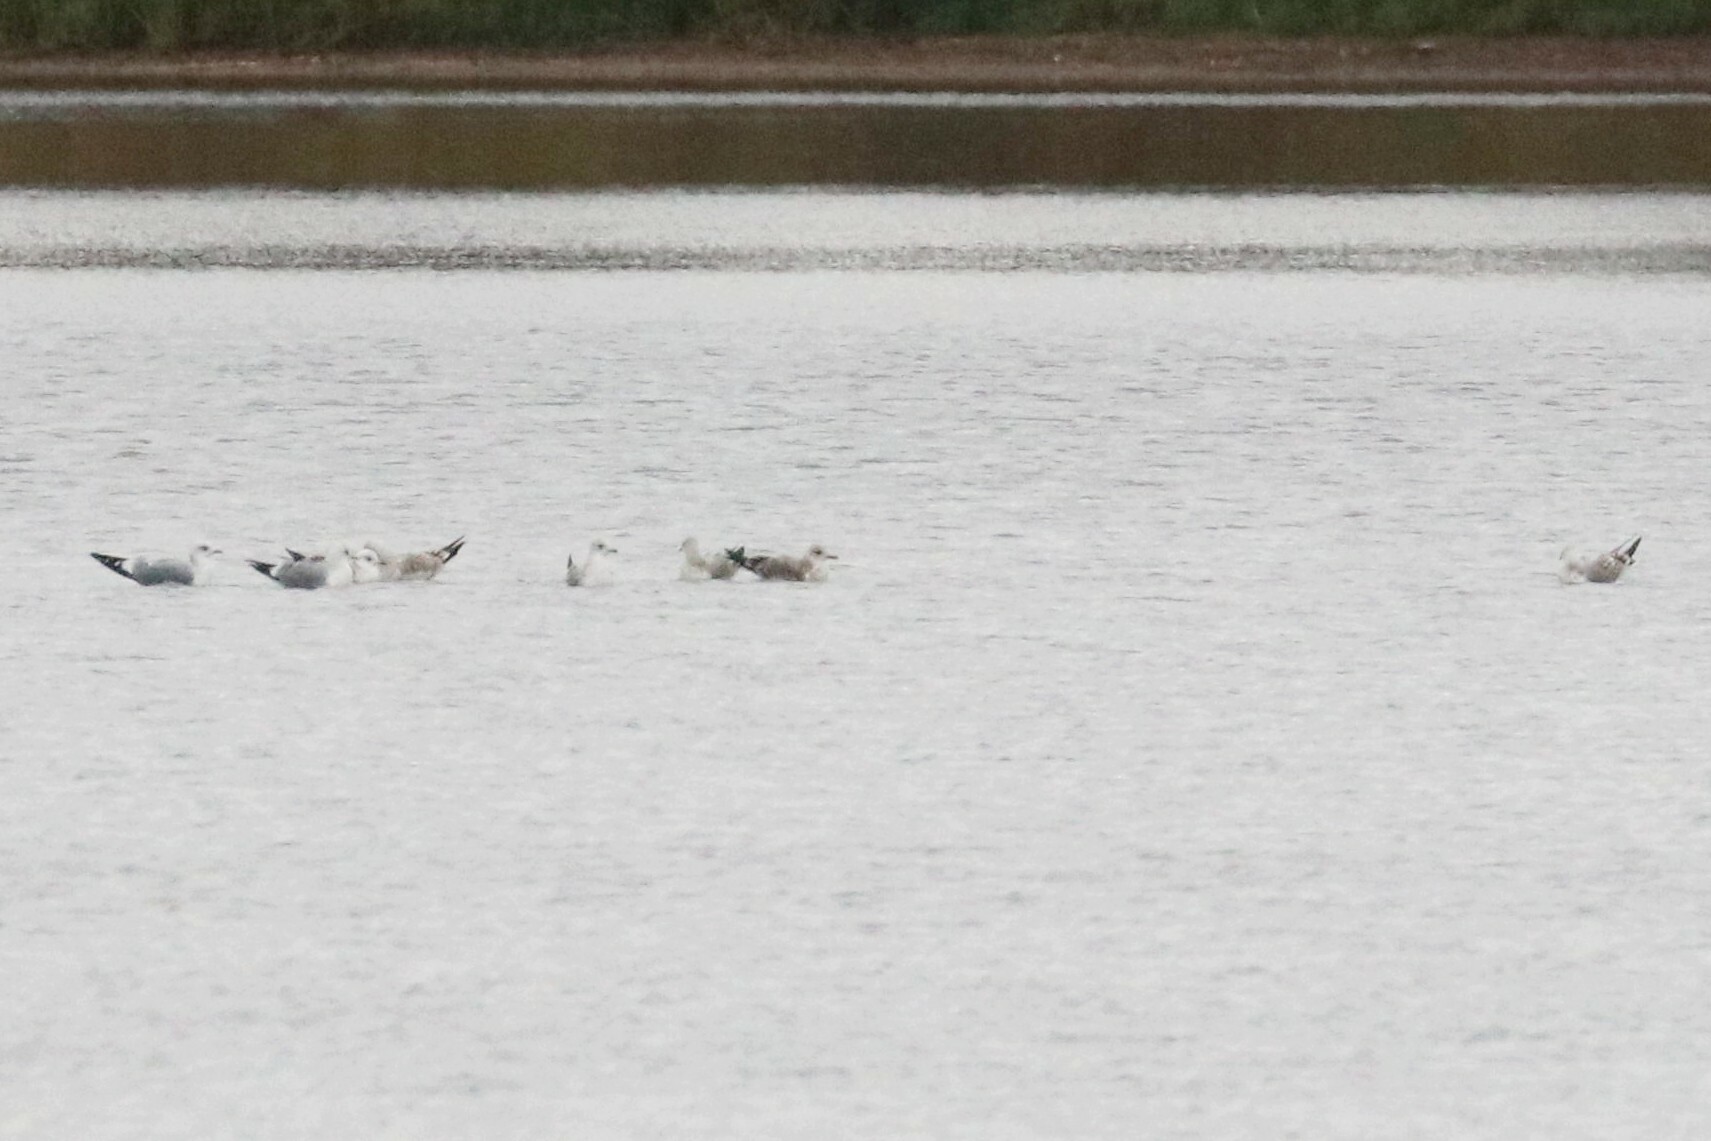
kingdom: Animalia
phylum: Chordata
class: Aves
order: Charadriiformes
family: Laridae
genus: Larus
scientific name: Larus canus
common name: Mew gull
